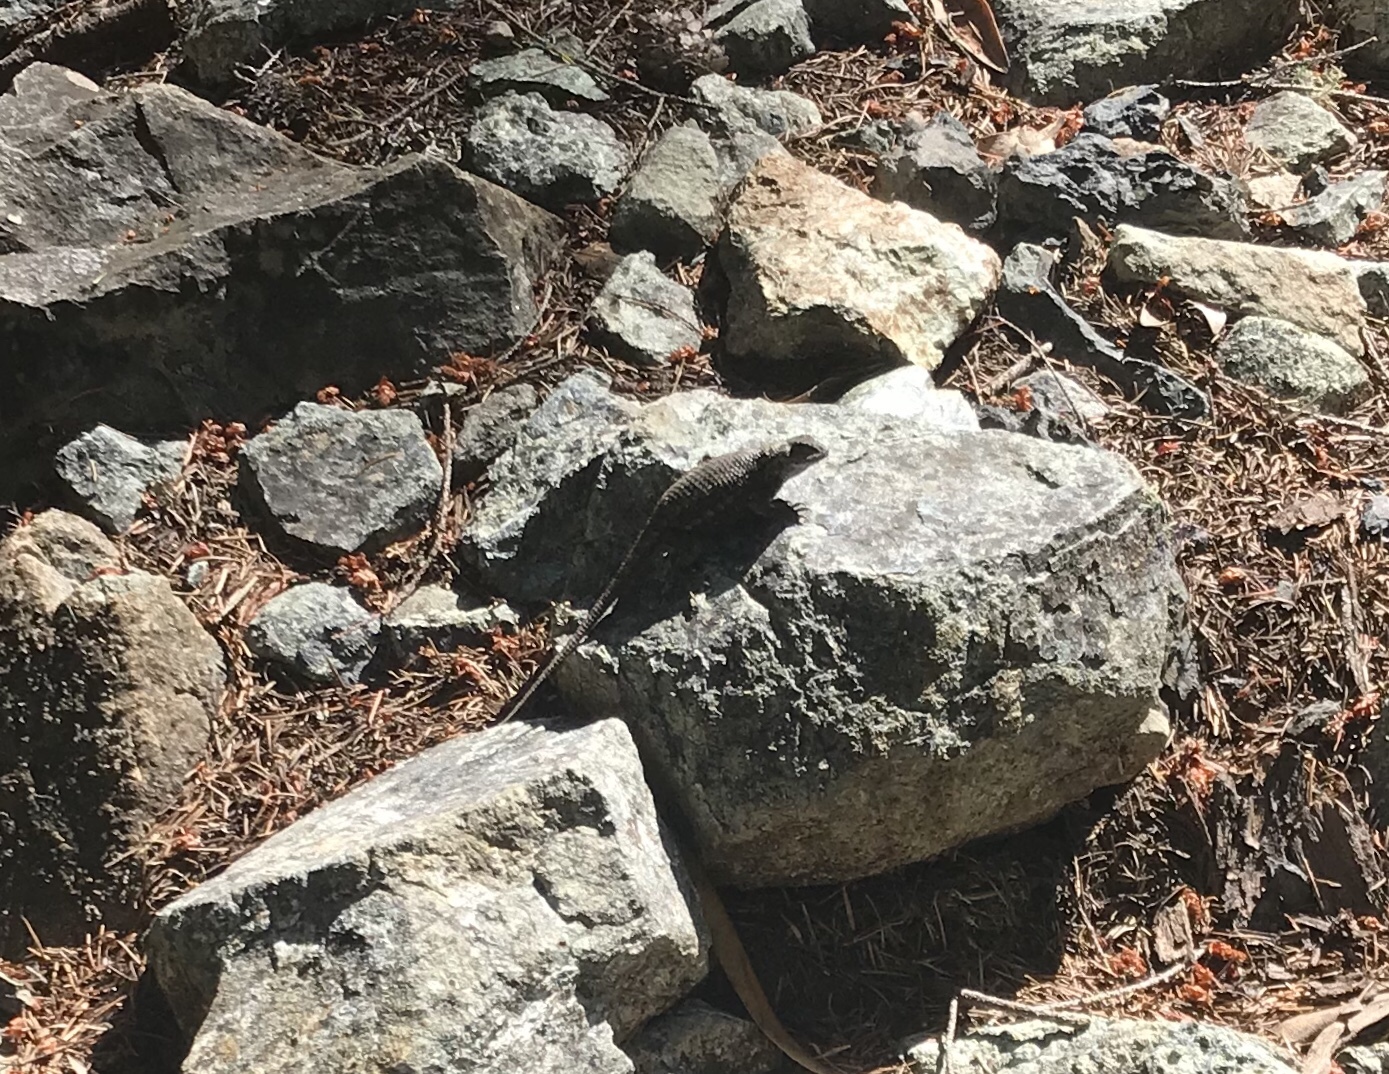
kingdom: Animalia
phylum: Chordata
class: Squamata
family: Phrynosomatidae
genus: Sceloporus
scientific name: Sceloporus occidentalis
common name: Western fence lizard
